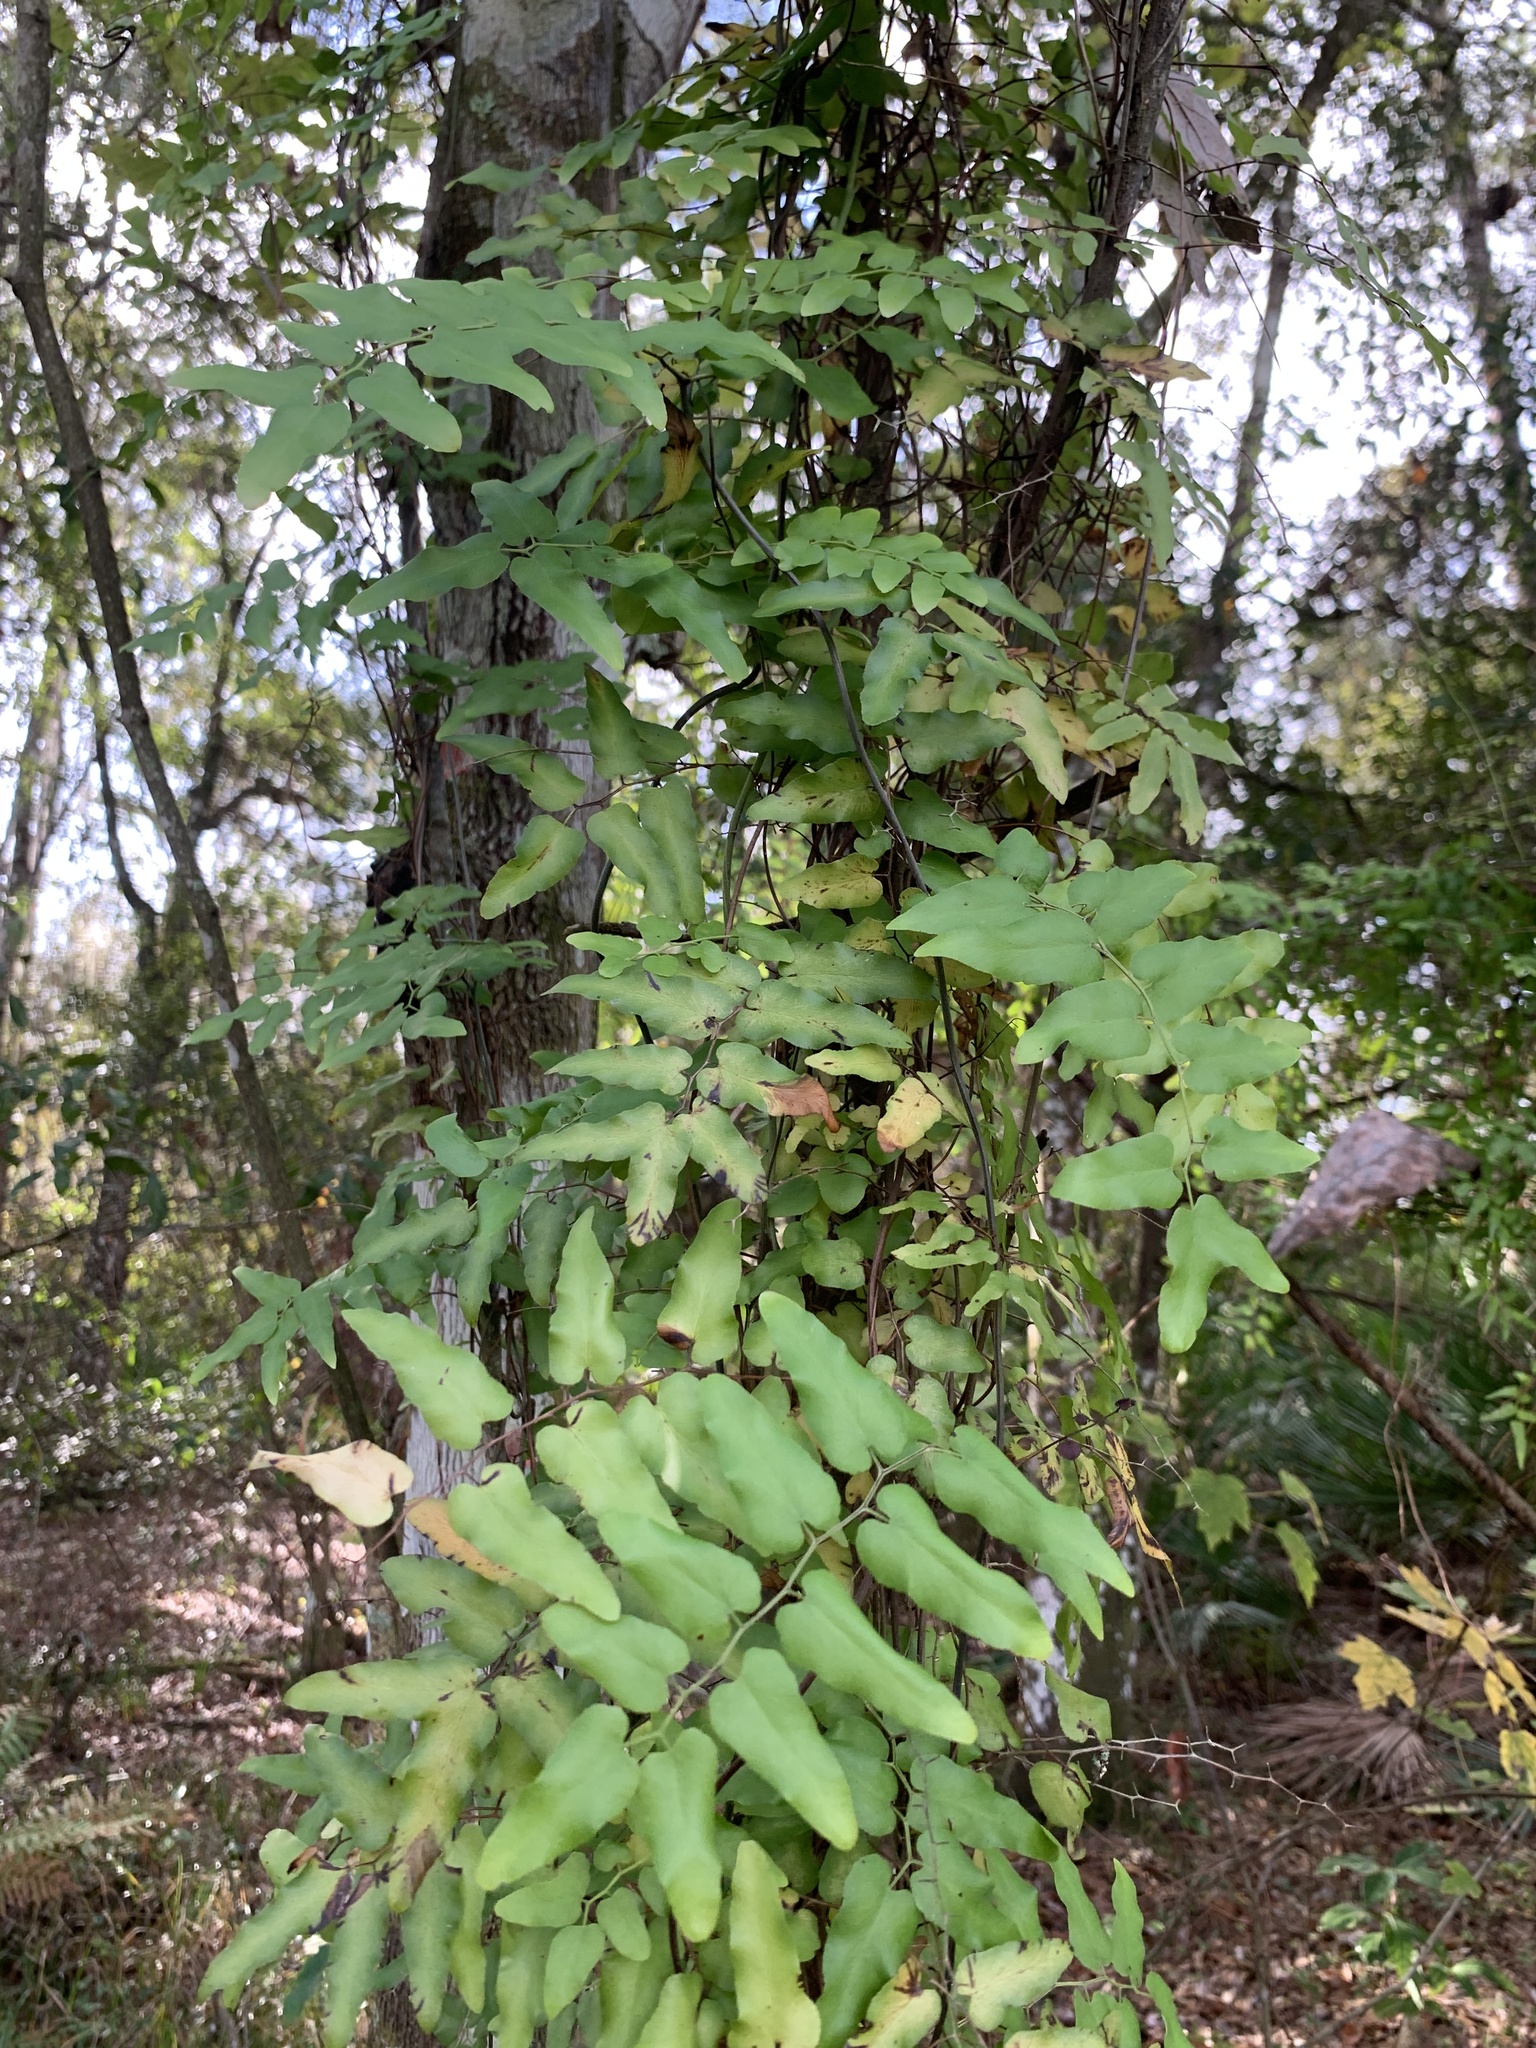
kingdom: Plantae
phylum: Tracheophyta
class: Polypodiopsida
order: Schizaeales
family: Lygodiaceae
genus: Lygodium
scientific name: Lygodium microphyllum
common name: Small-leaf climbing fern
